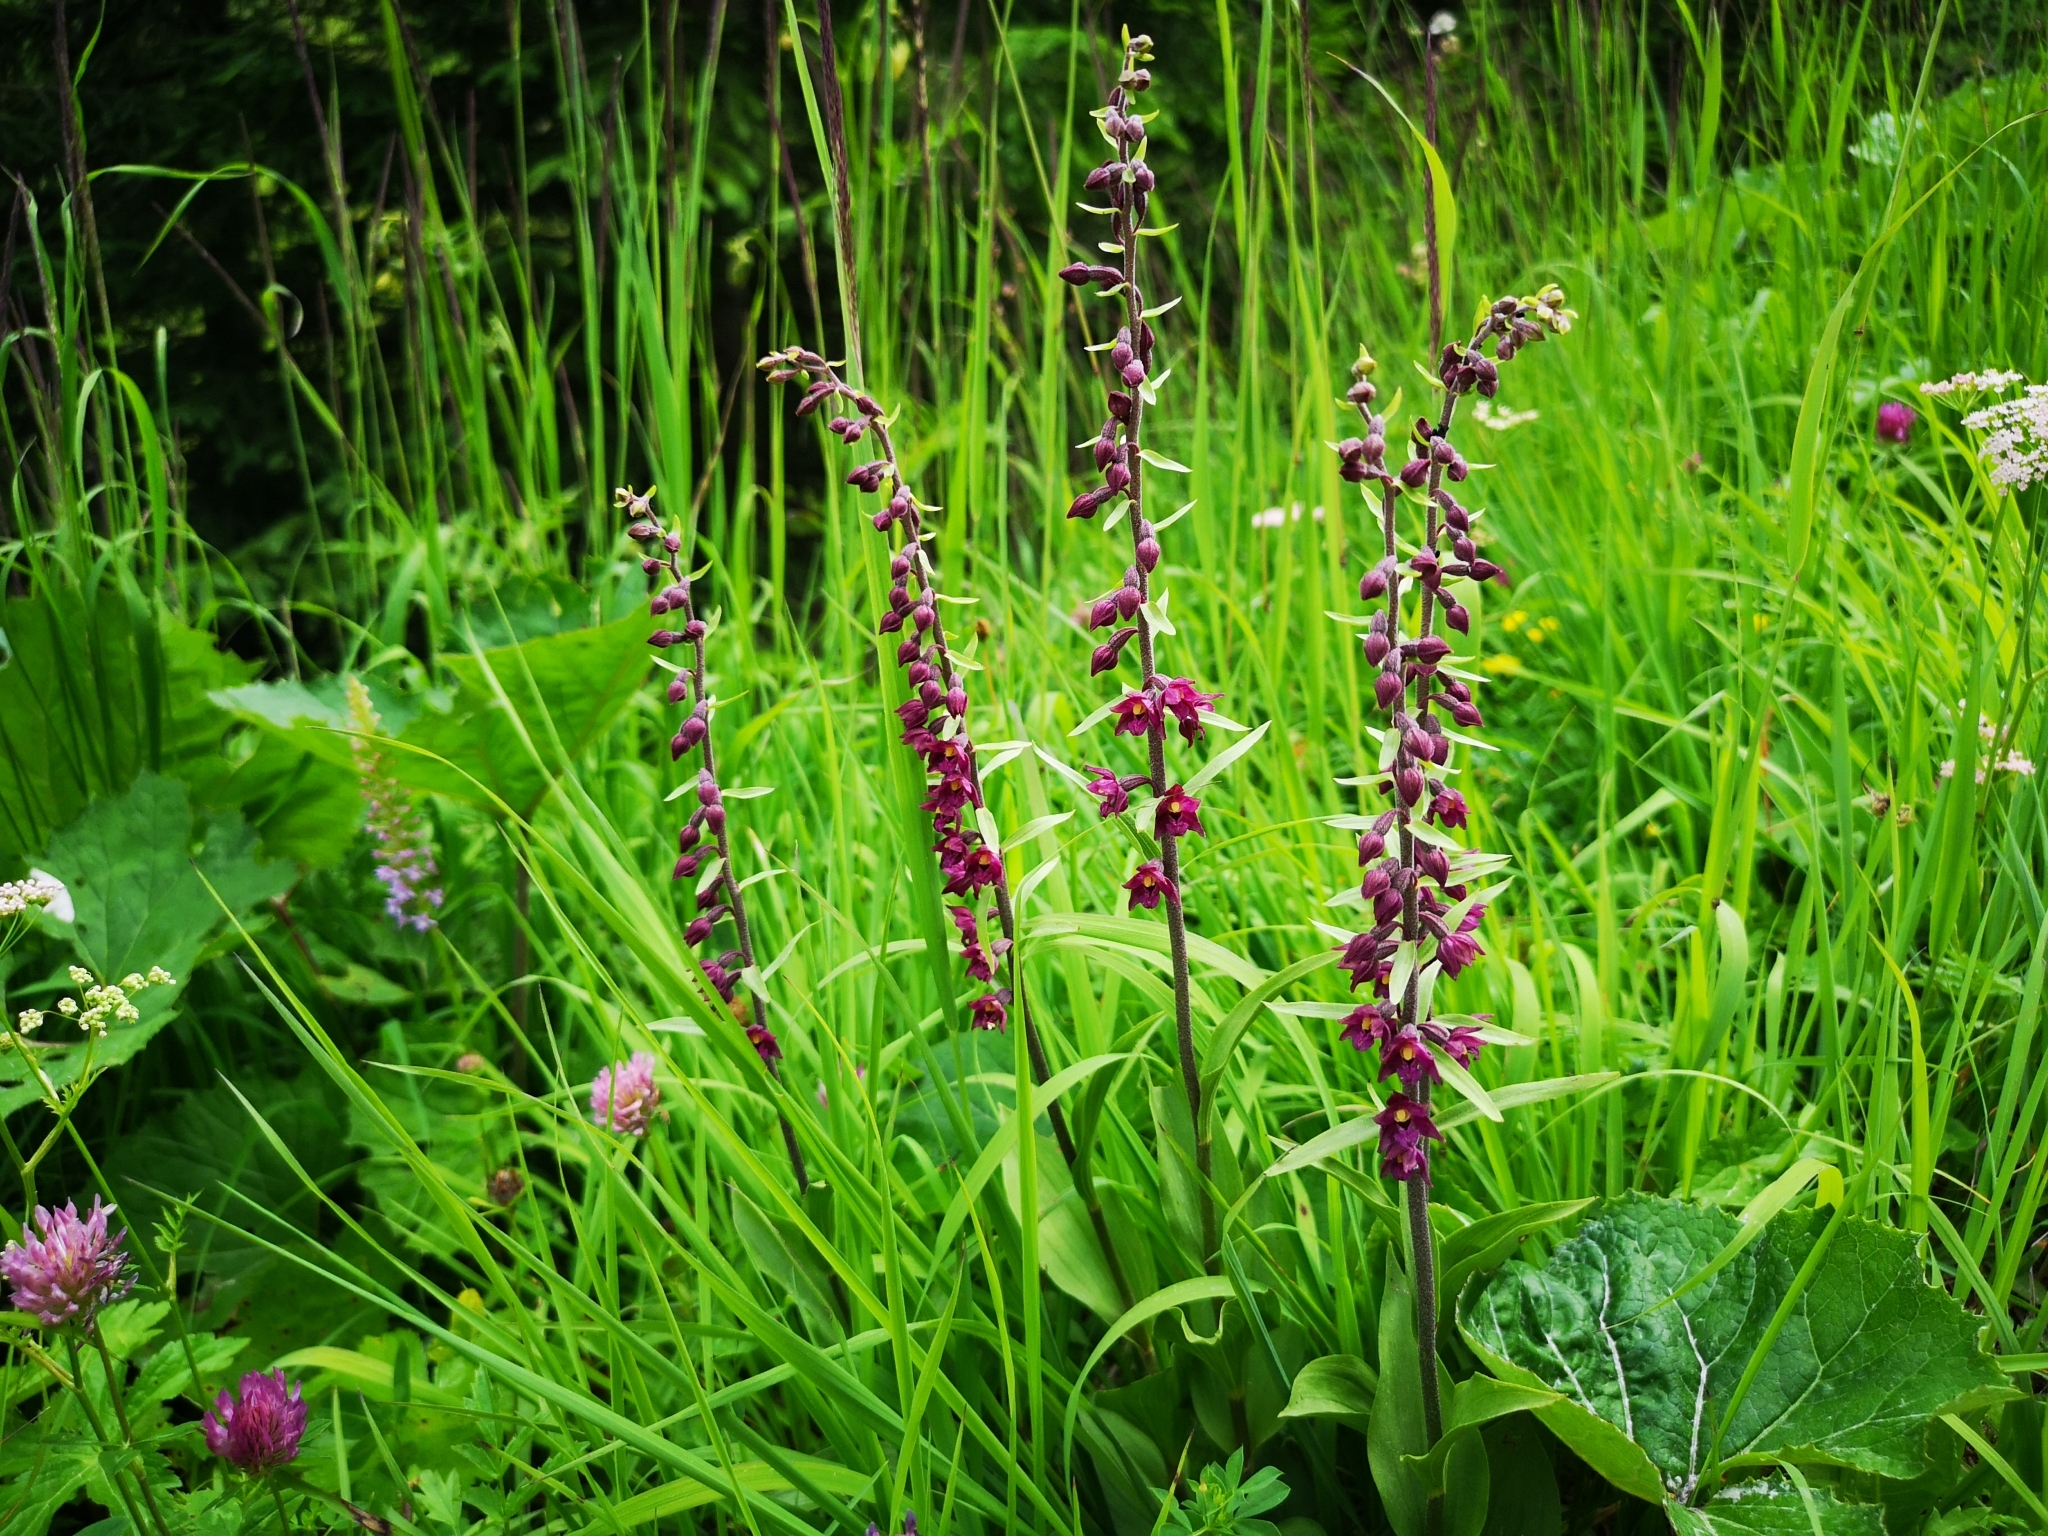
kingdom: Plantae
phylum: Tracheophyta
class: Liliopsida
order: Asparagales
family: Orchidaceae
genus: Epipactis
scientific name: Epipactis atrorubens
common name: Dark-red helleborine
